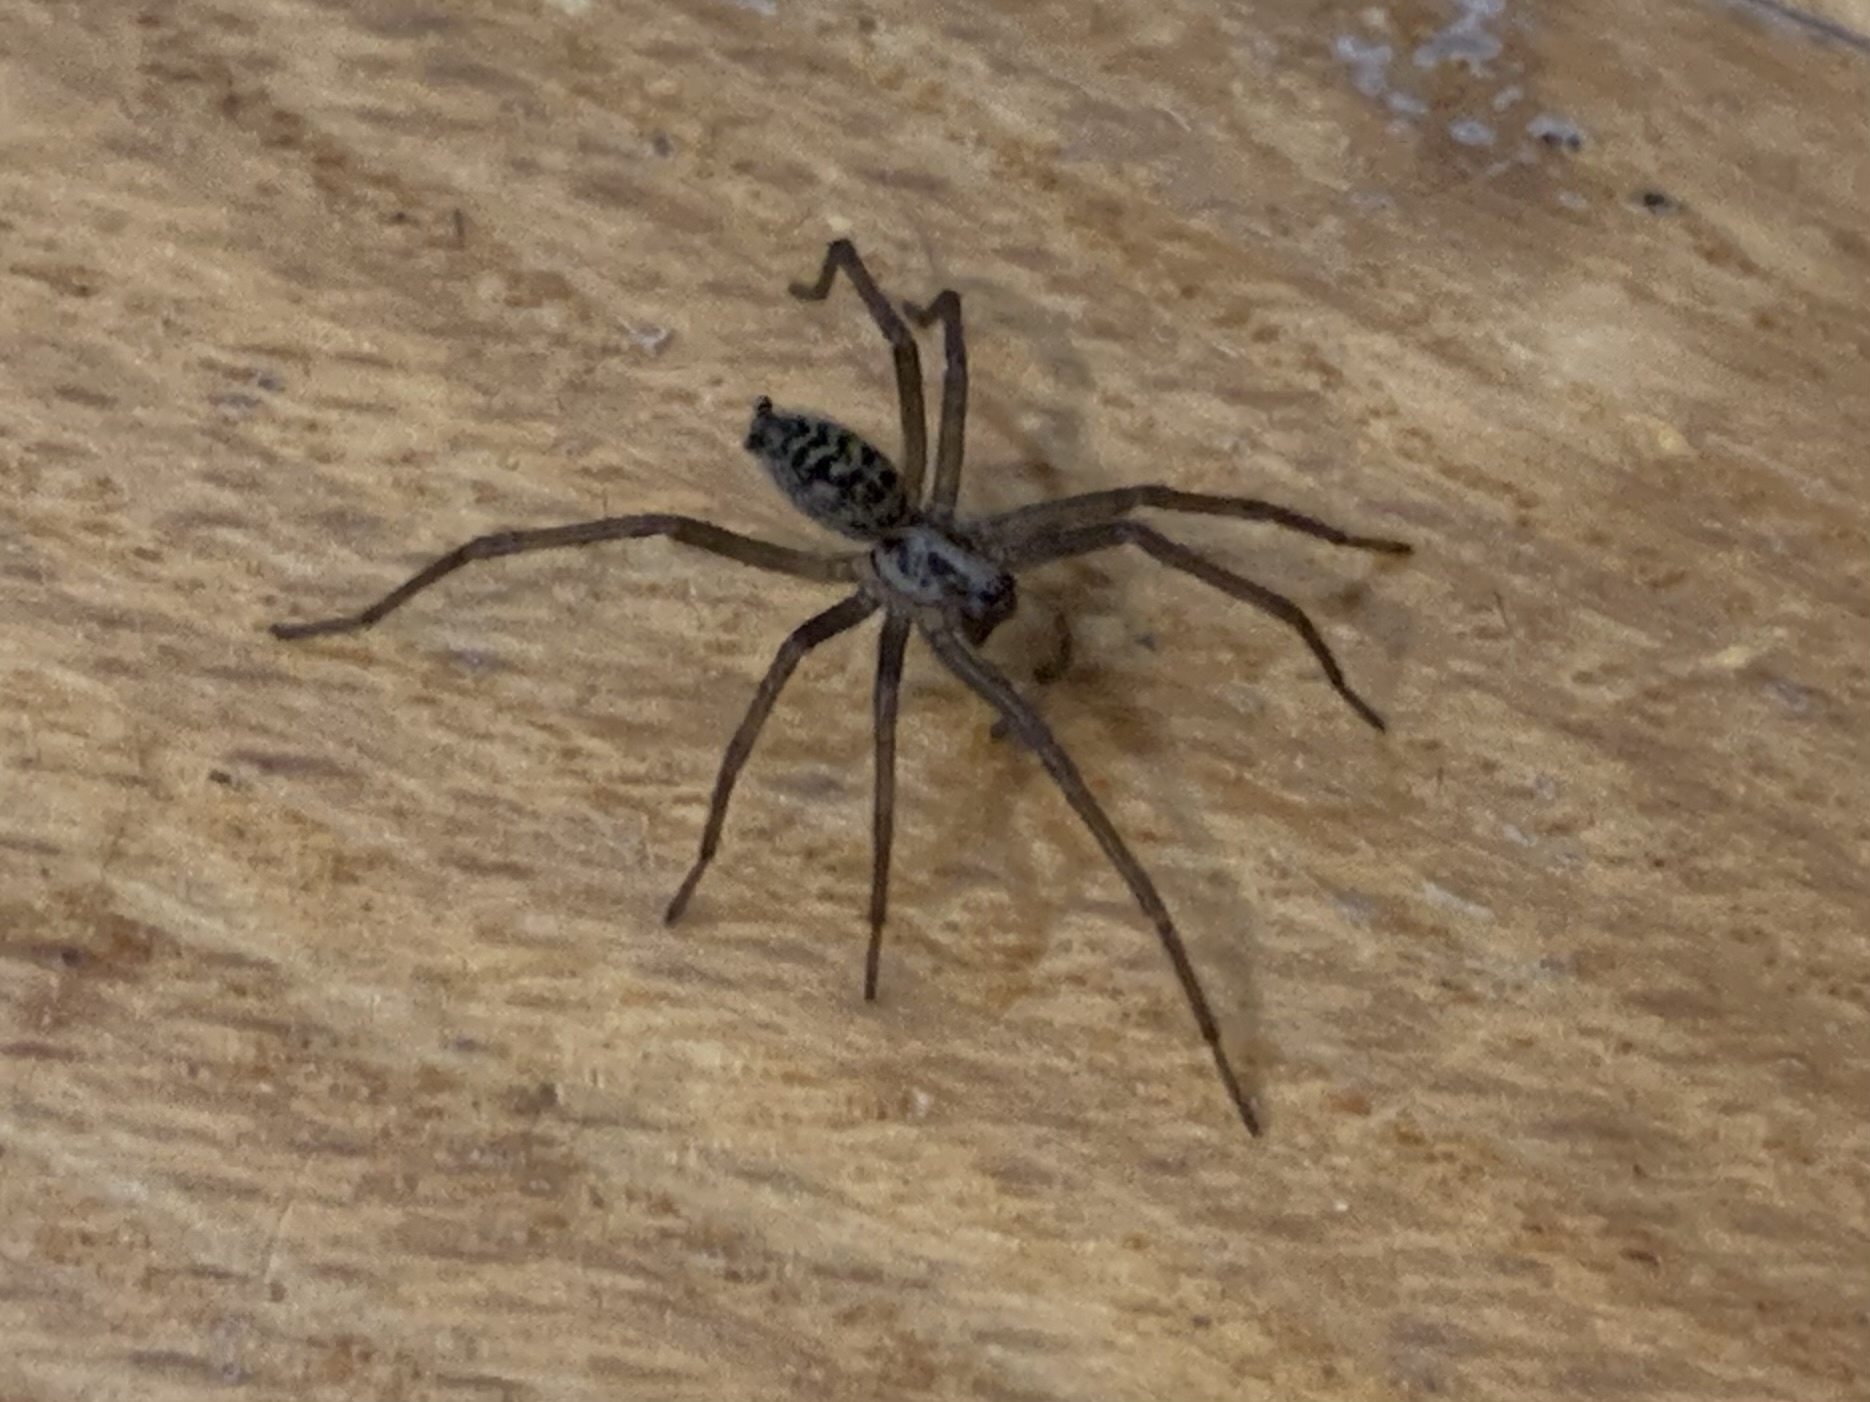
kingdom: Animalia
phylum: Arthropoda
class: Arachnida
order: Araneae
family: Agelenidae
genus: Eratigena
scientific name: Eratigena duellica
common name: Giant house spider
